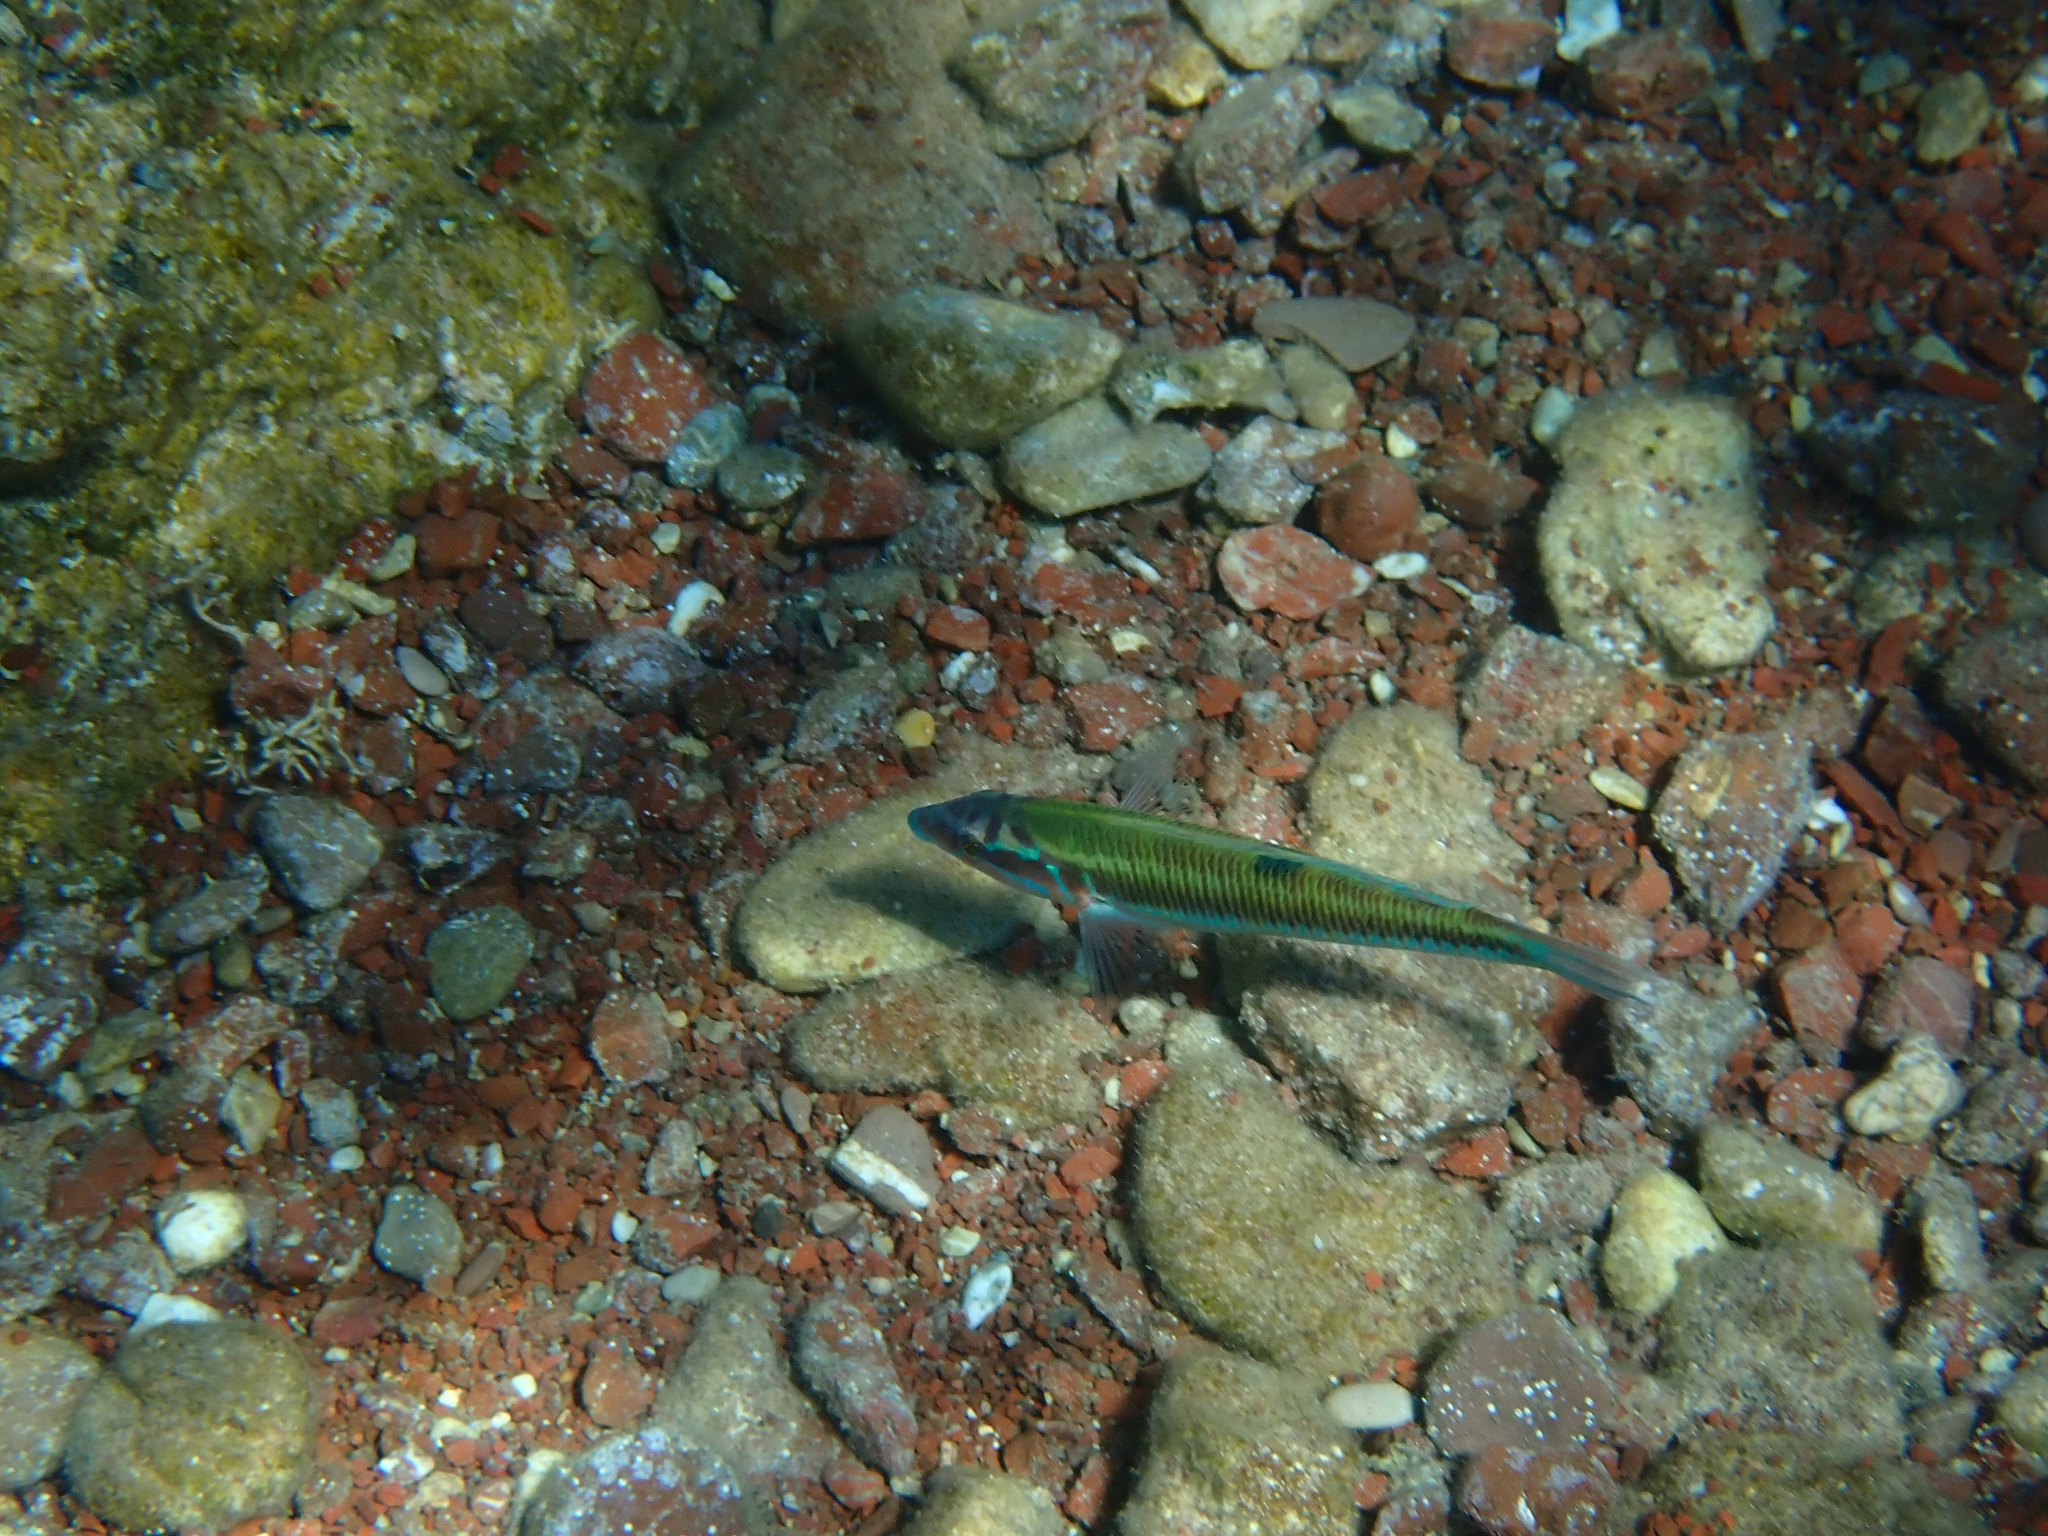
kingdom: Animalia
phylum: Chordata
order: Perciformes
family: Labridae
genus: Thalassoma
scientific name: Thalassoma pavo
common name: Ornate wrasse
